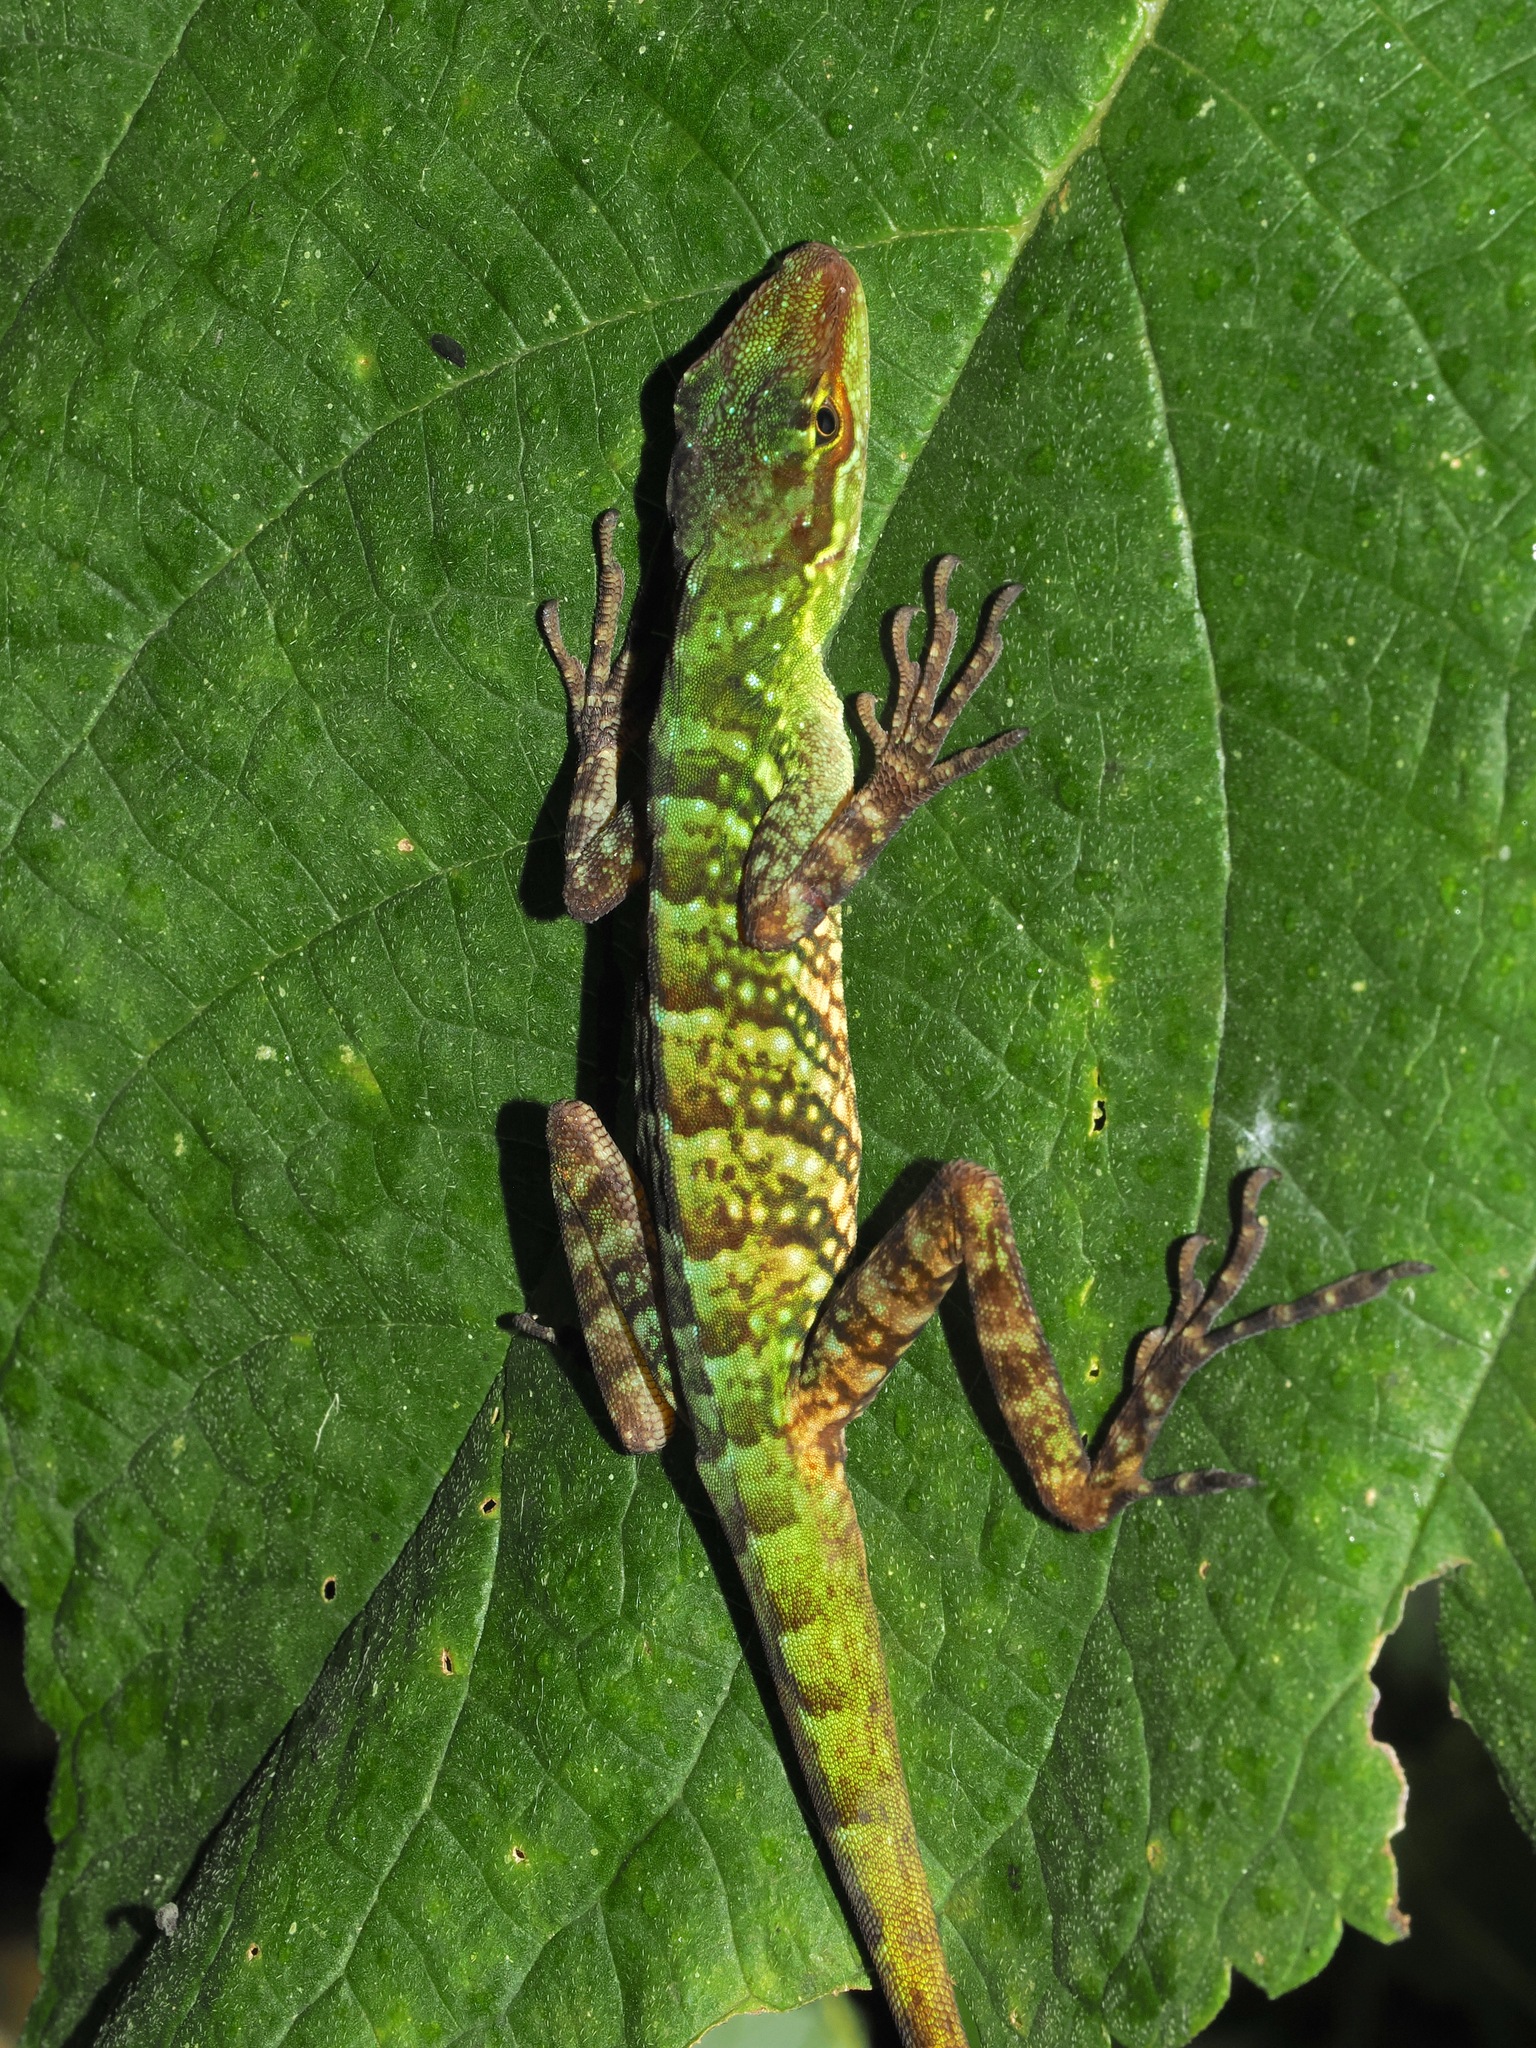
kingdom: Animalia
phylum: Chordata
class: Squamata
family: Dactyloidae
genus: Anolis
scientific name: Anolis ventrimaculatus
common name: Speckled anole
